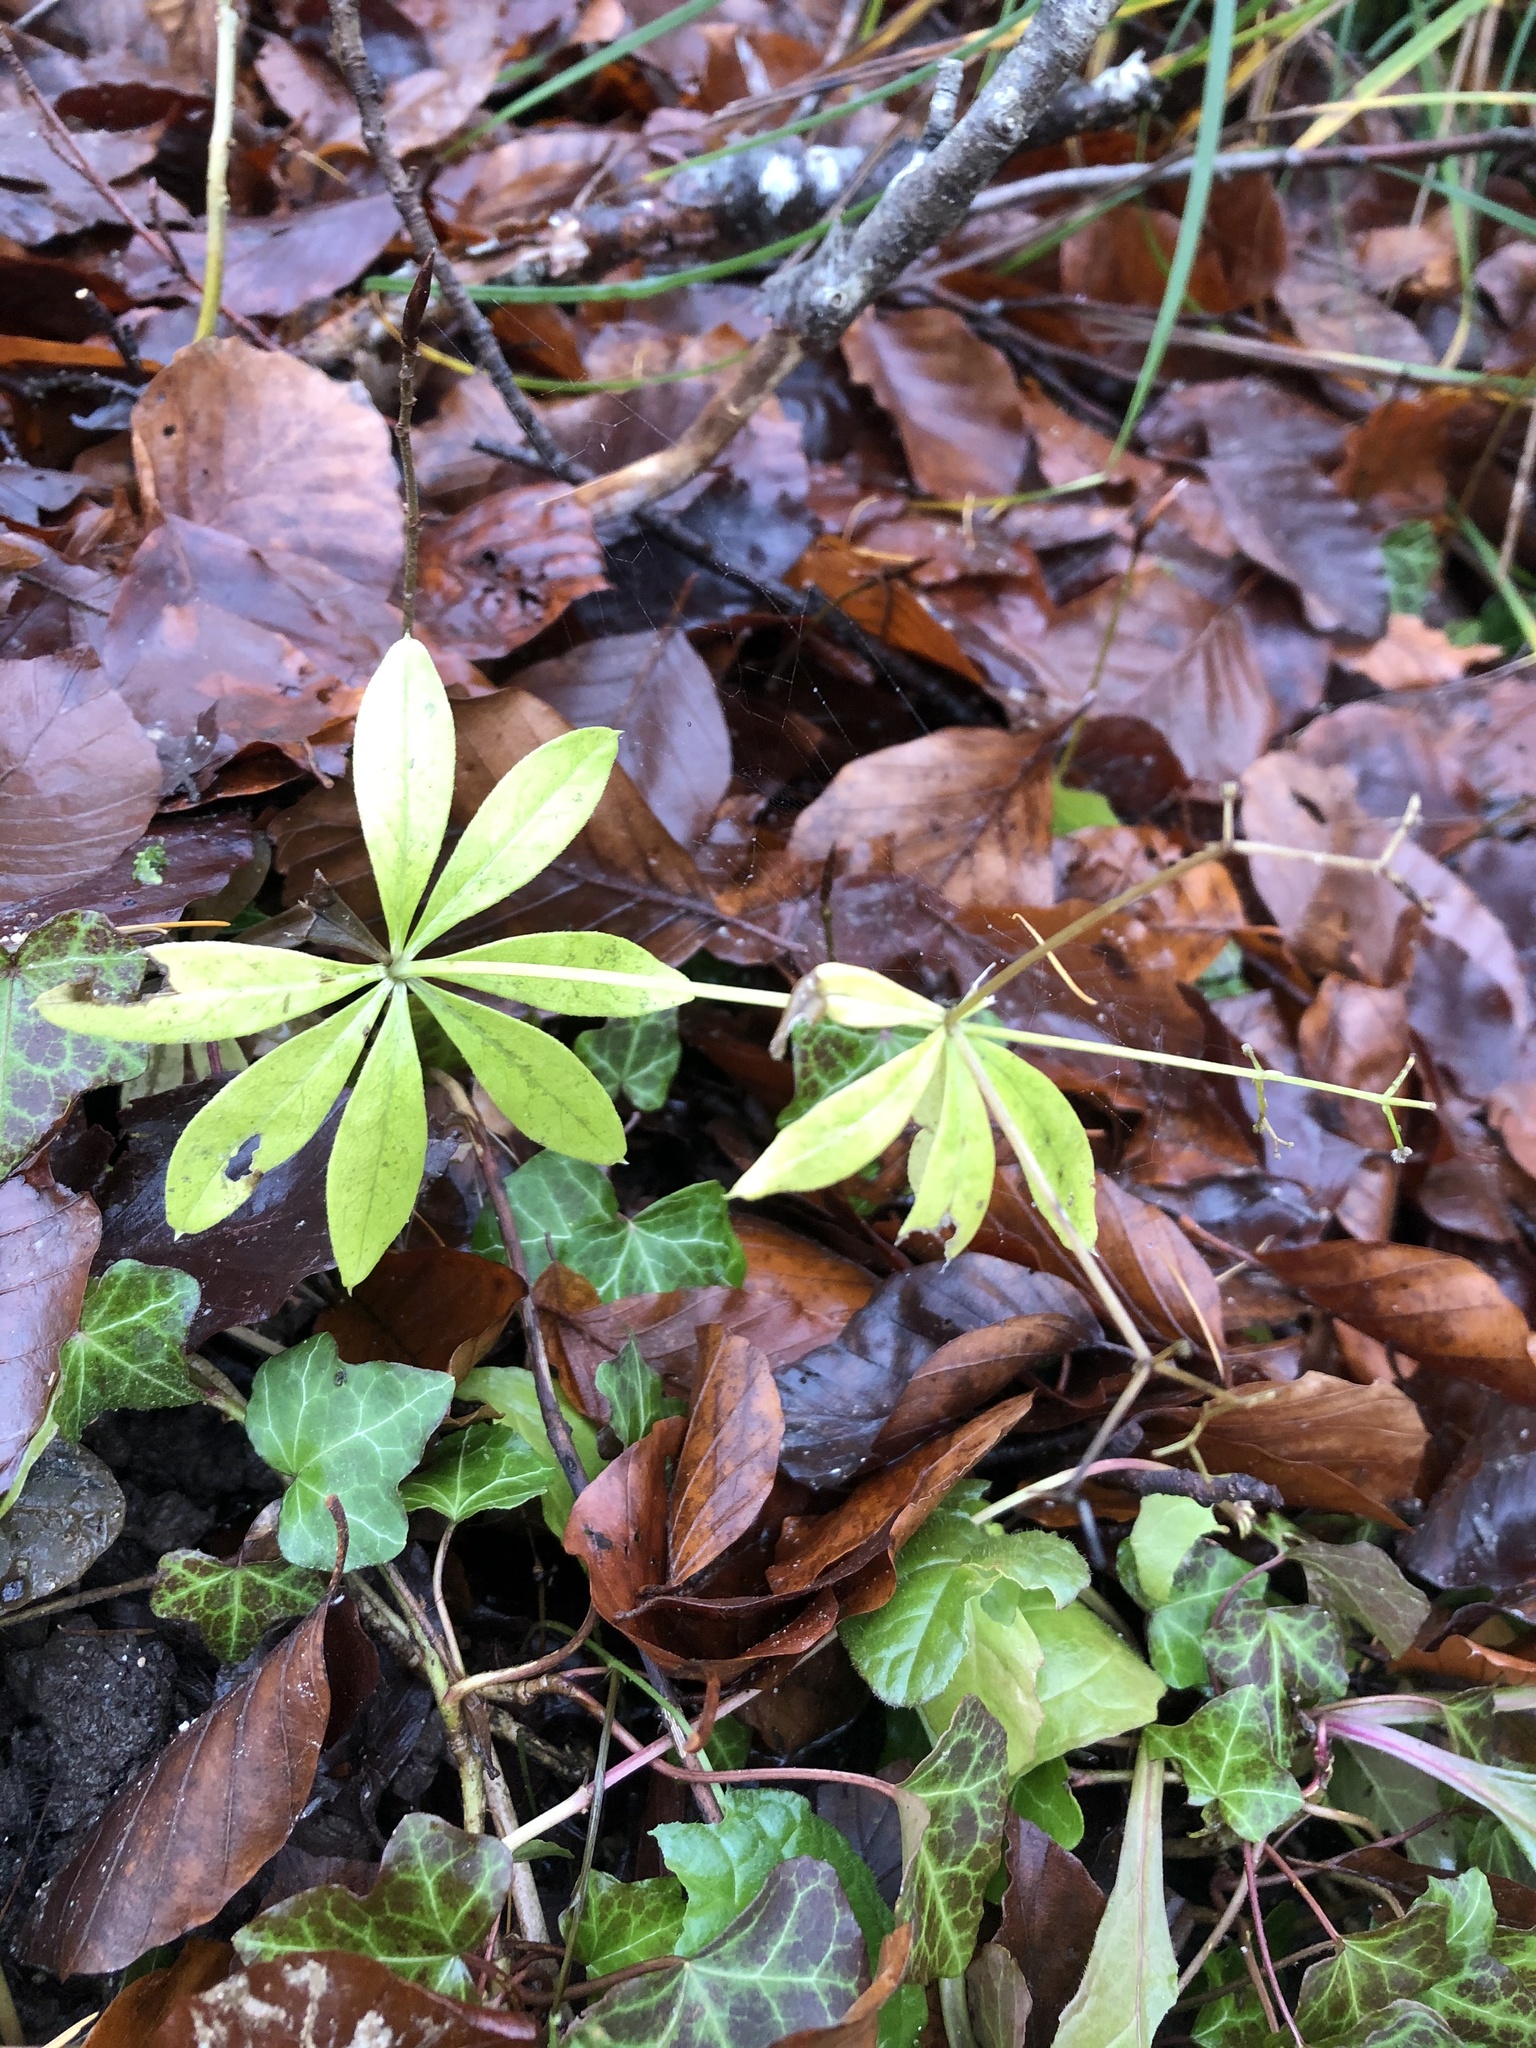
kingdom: Plantae
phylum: Tracheophyta
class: Magnoliopsida
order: Gentianales
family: Rubiaceae
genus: Galium
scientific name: Galium odoratum
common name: Sweet woodruff
